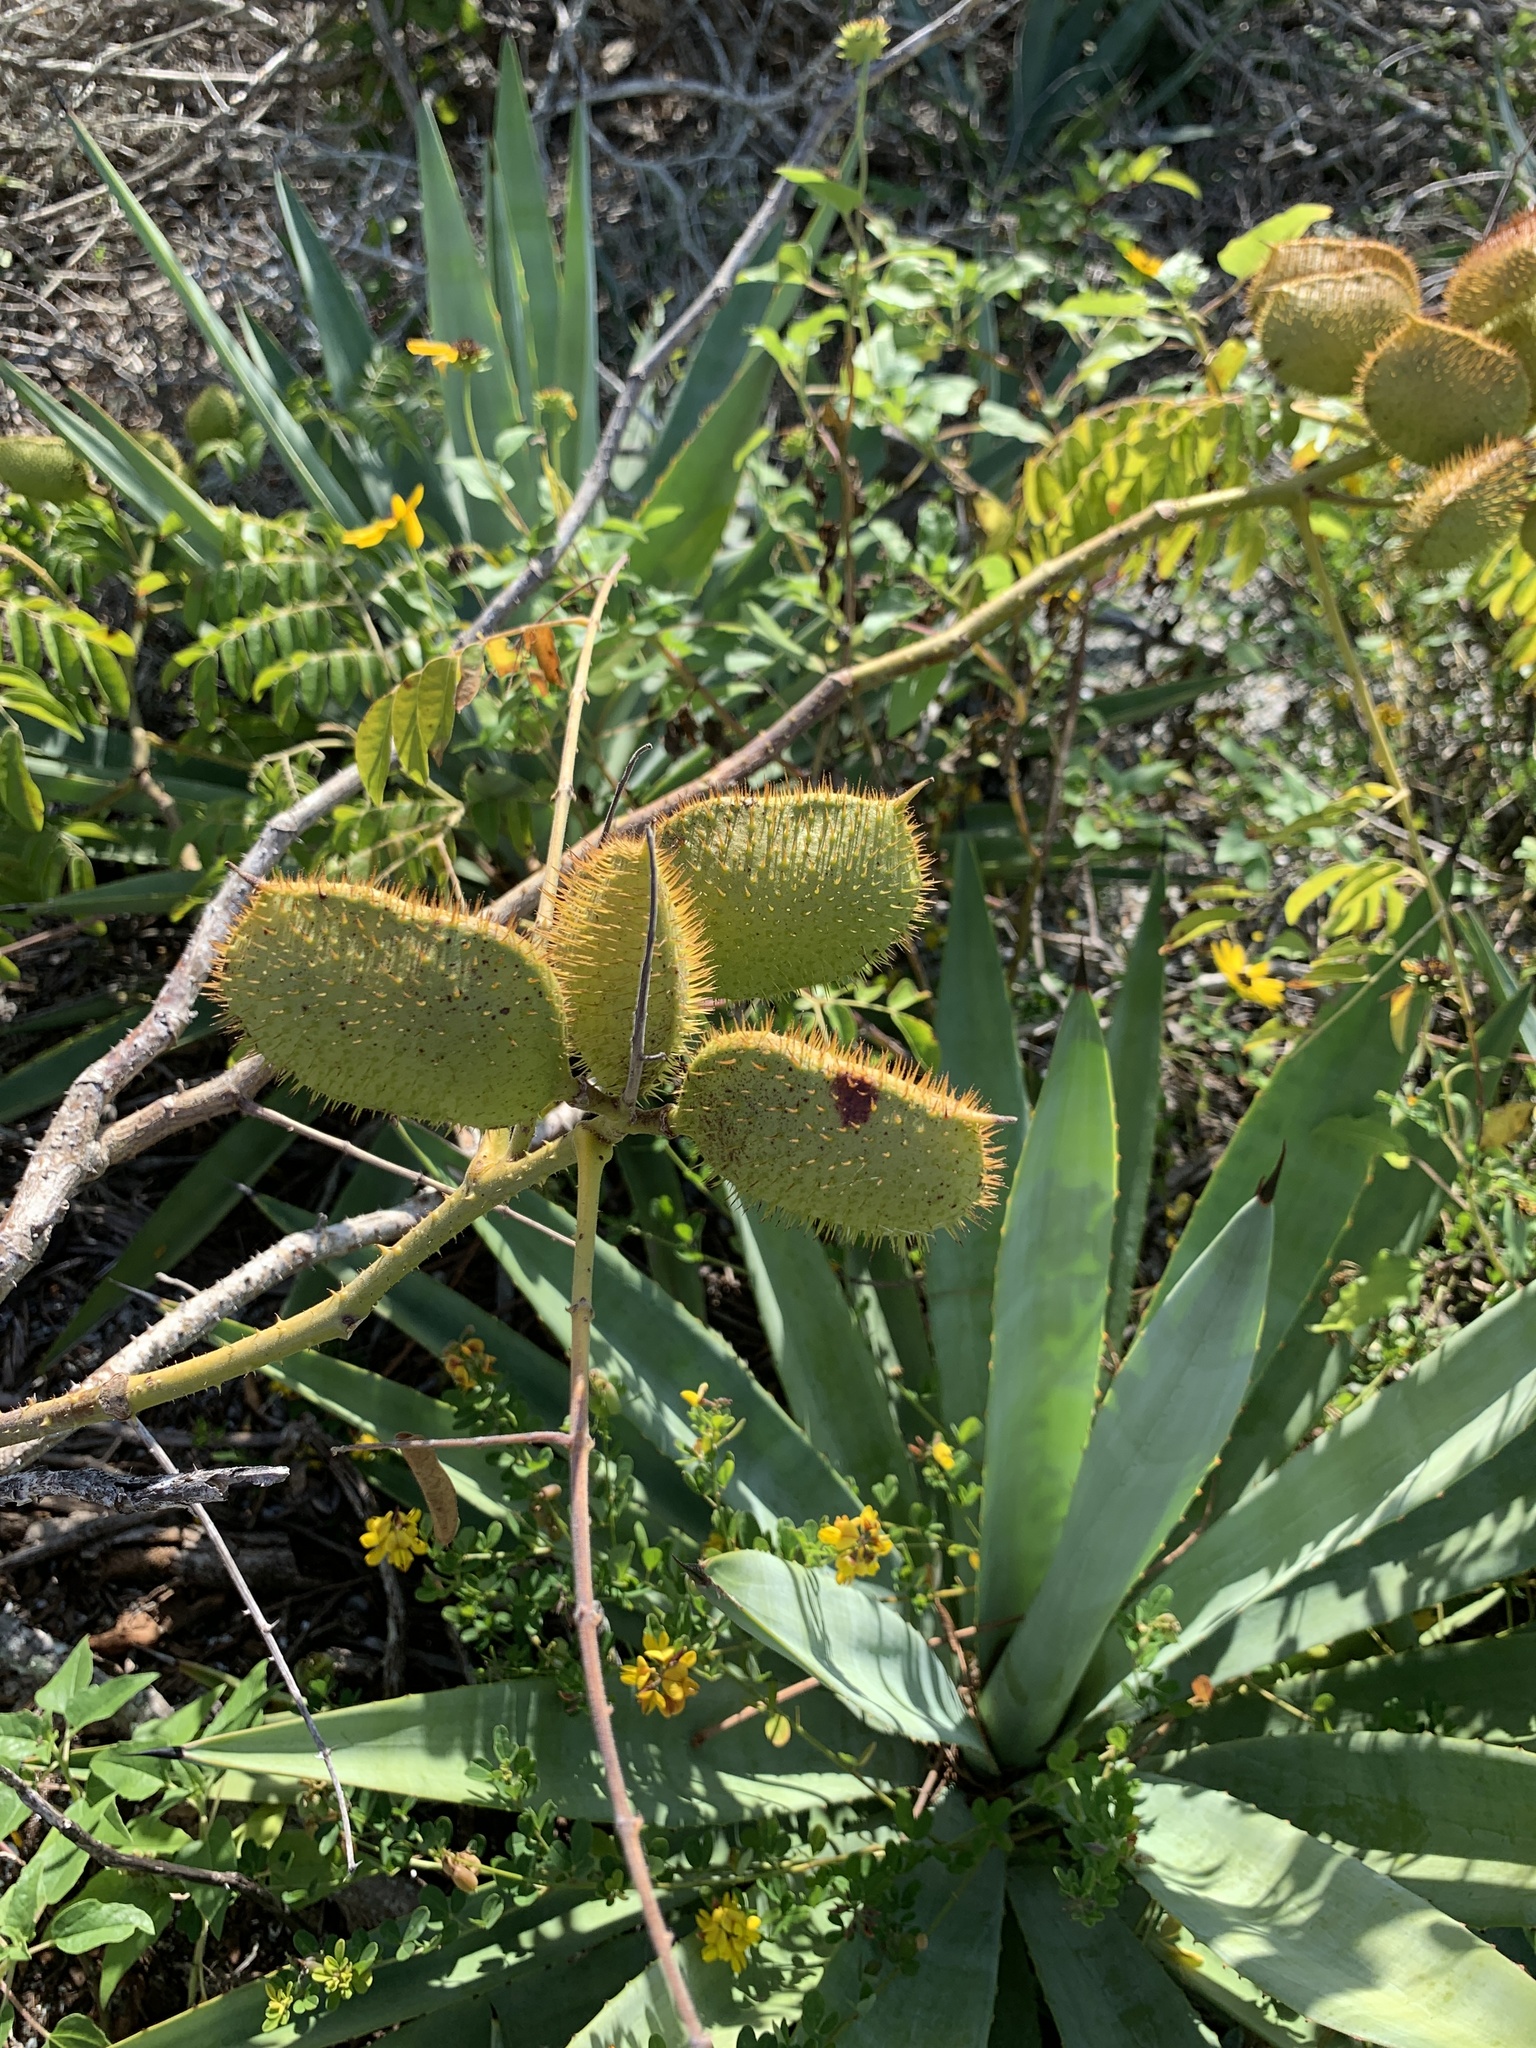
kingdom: Plantae
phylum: Tracheophyta
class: Magnoliopsida
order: Fabales
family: Fabaceae
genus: Guilandina
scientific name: Guilandina bonduc
